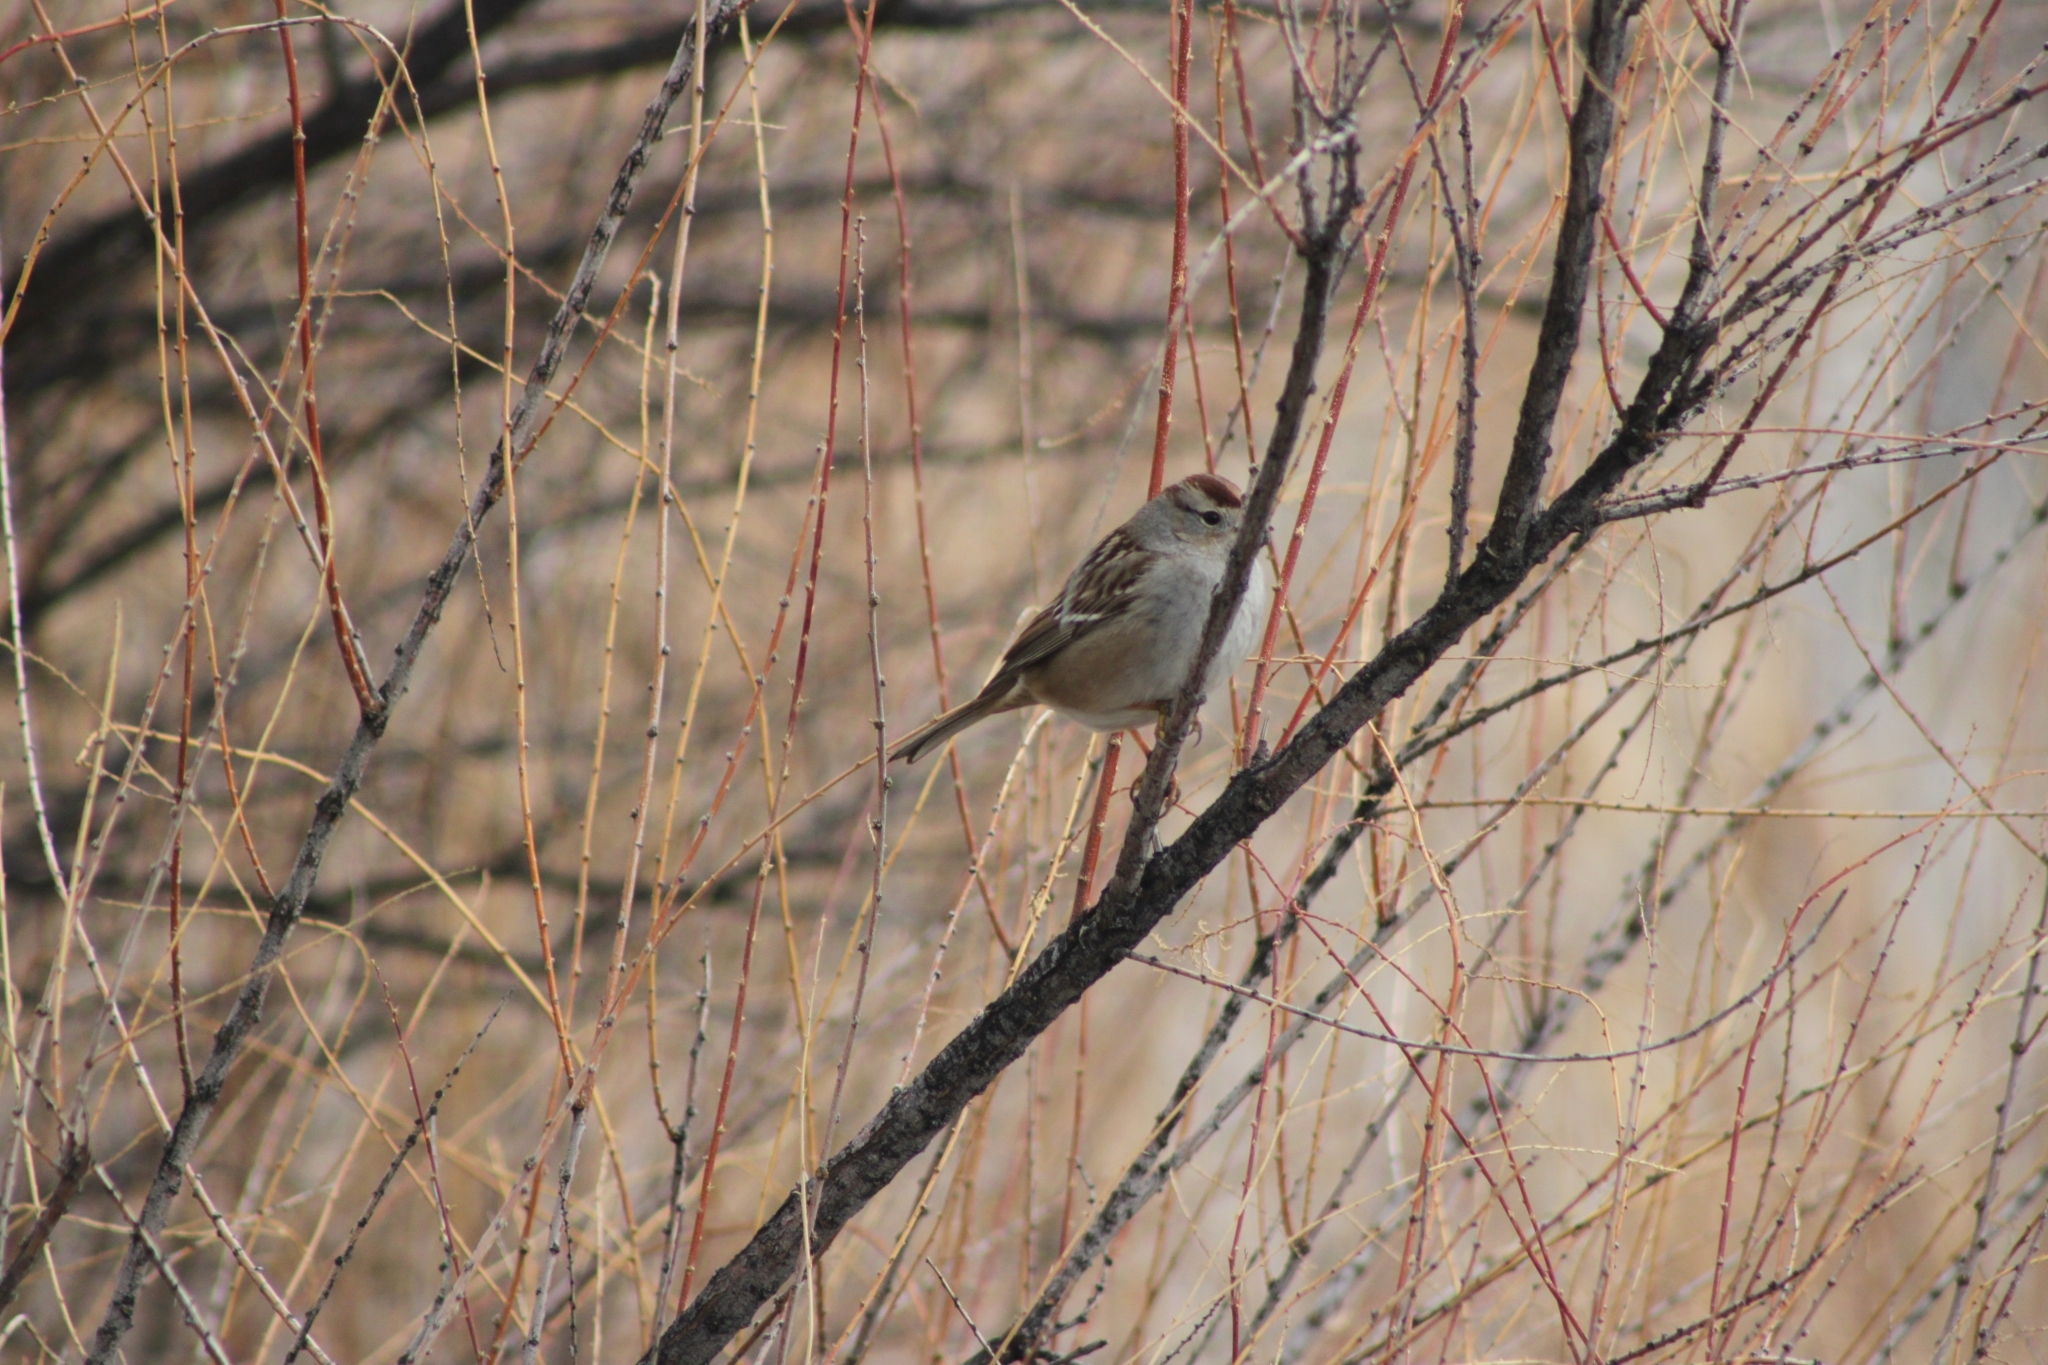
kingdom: Animalia
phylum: Chordata
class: Aves
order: Passeriformes
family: Passerellidae
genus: Zonotrichia
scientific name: Zonotrichia leucophrys
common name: White-crowned sparrow
